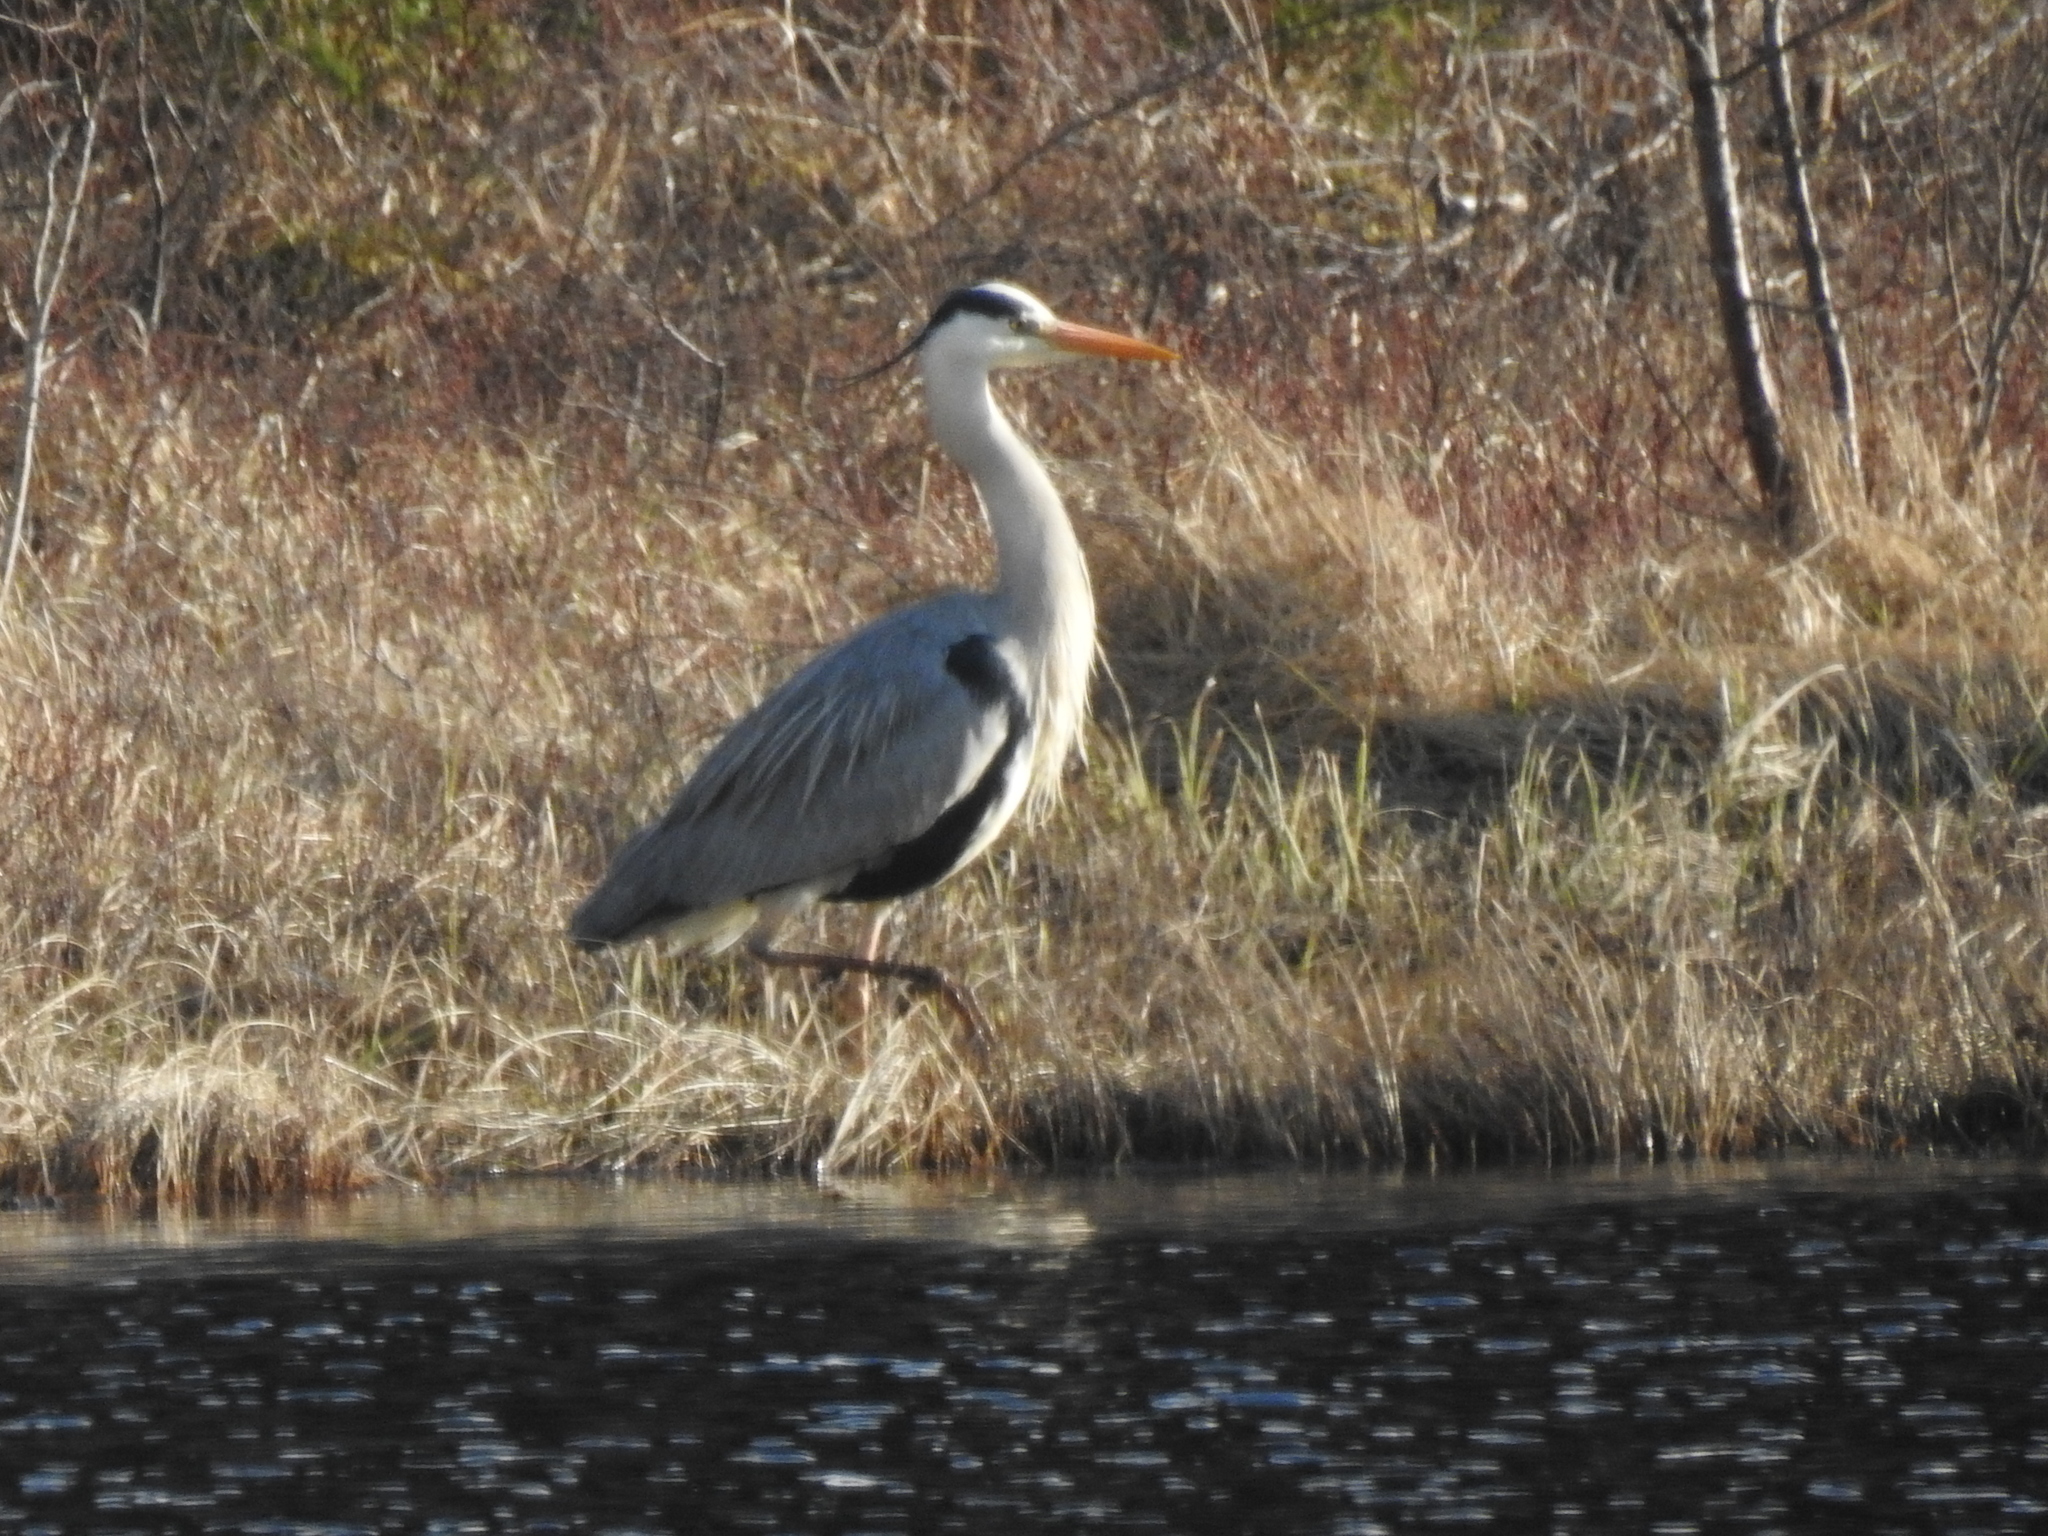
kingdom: Animalia
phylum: Chordata
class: Aves
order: Pelecaniformes
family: Ardeidae
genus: Ardea
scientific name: Ardea cinerea
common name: Grey heron
